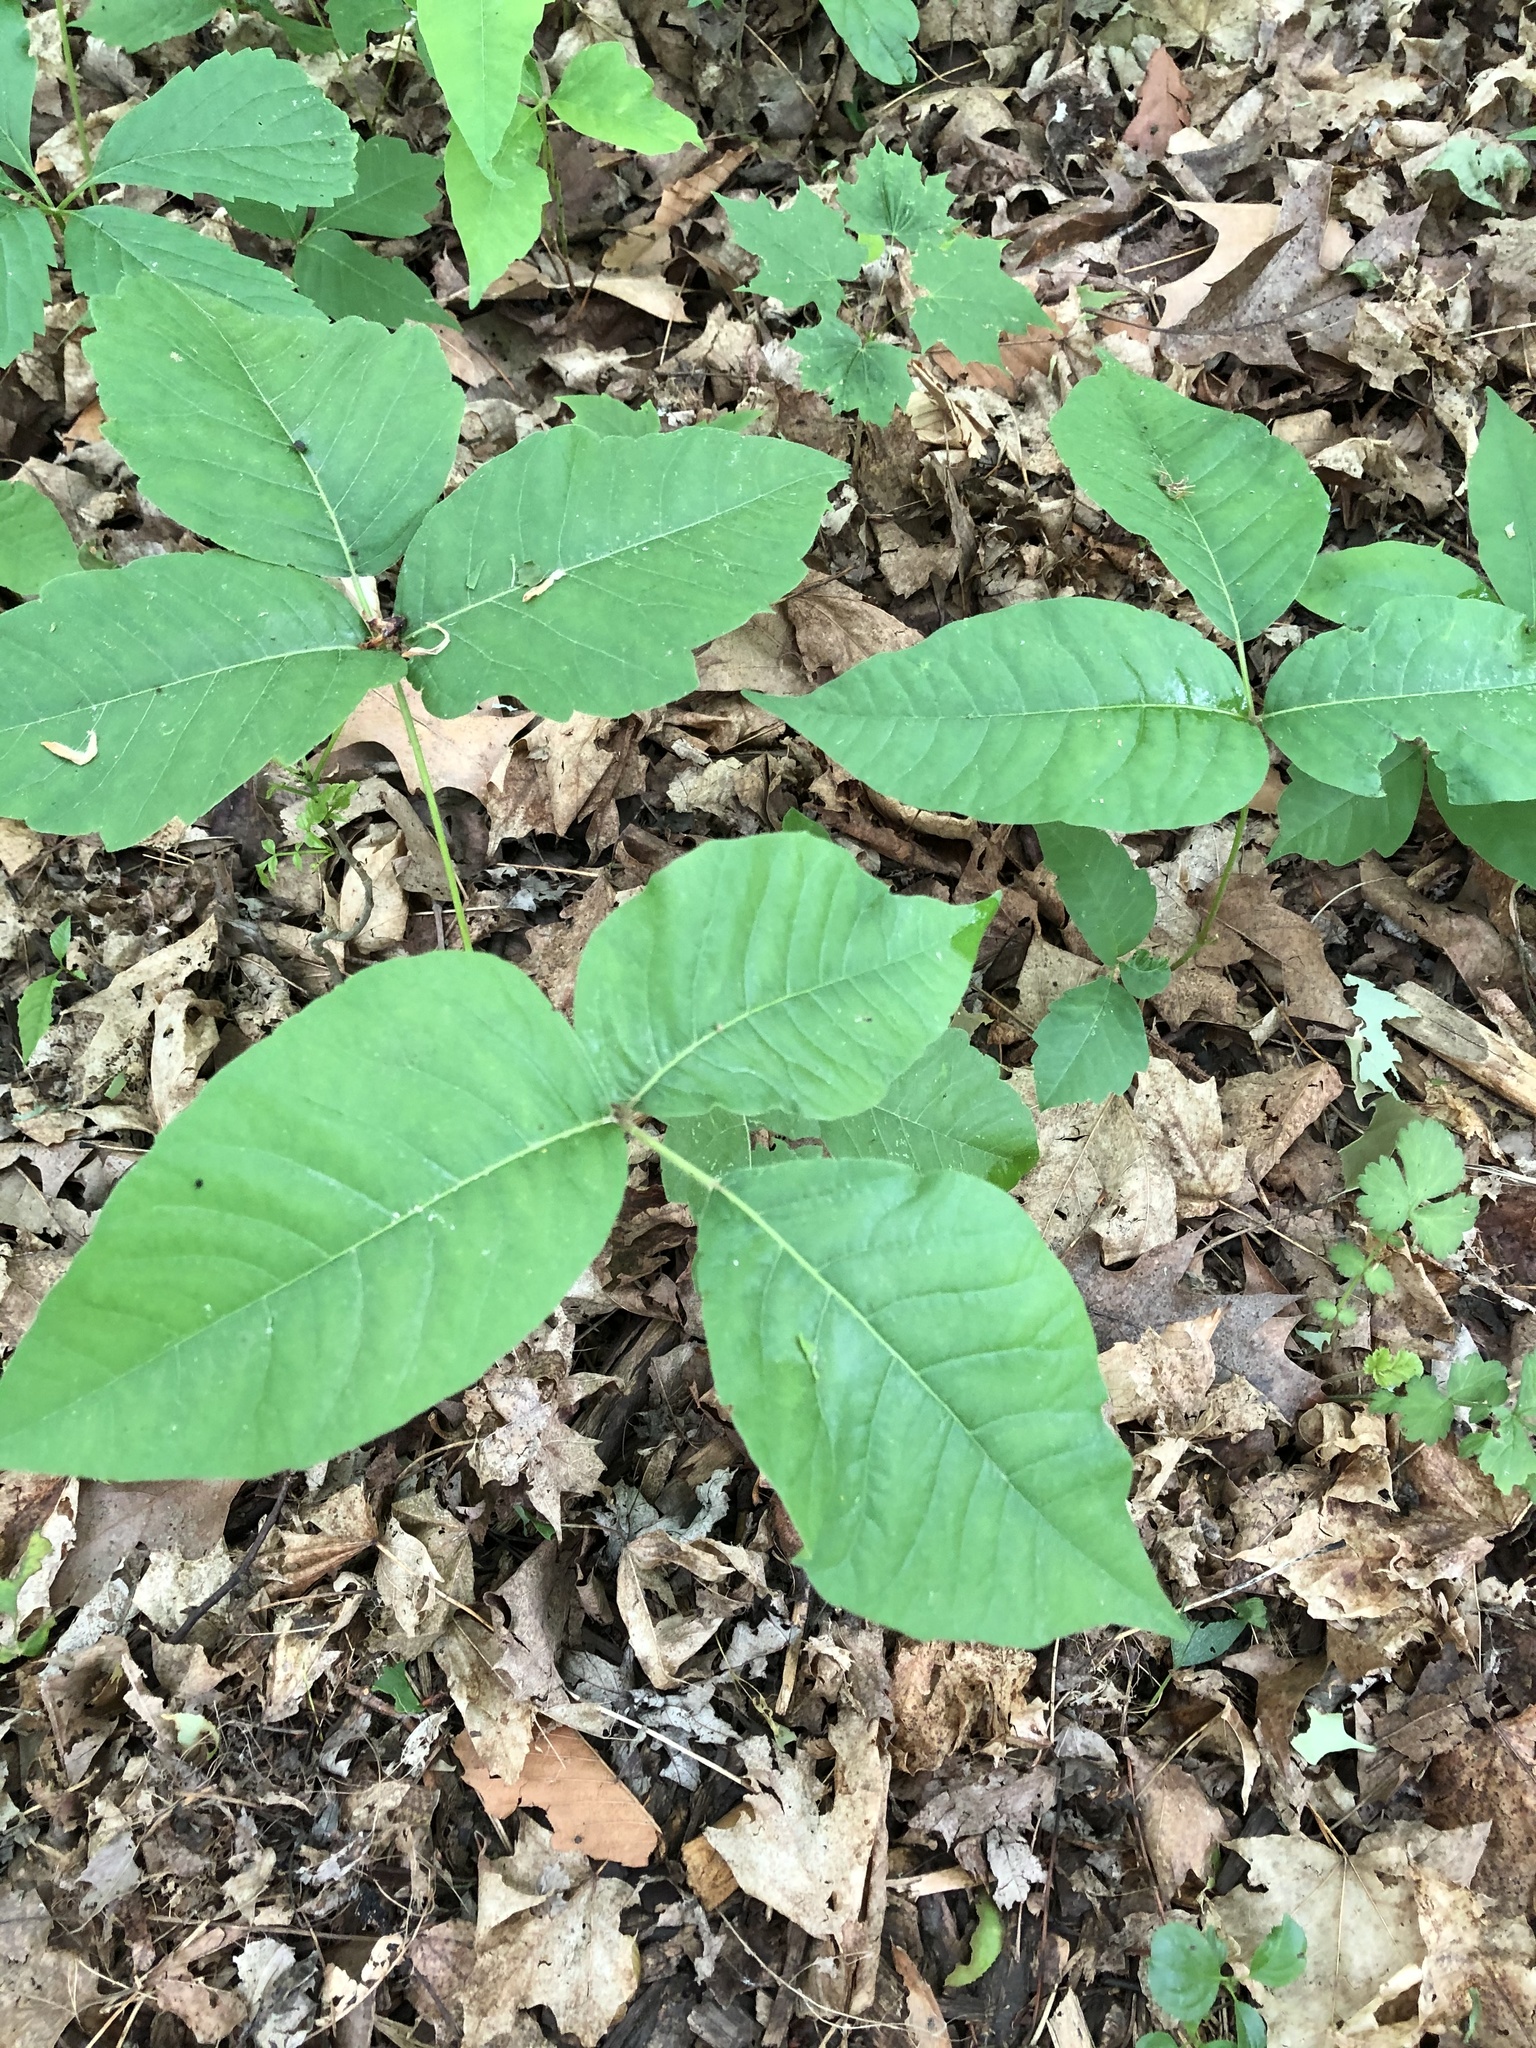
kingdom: Plantae
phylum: Tracheophyta
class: Magnoliopsida
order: Sapindales
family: Anacardiaceae
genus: Toxicodendron
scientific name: Toxicodendron radicans
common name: Poison ivy
